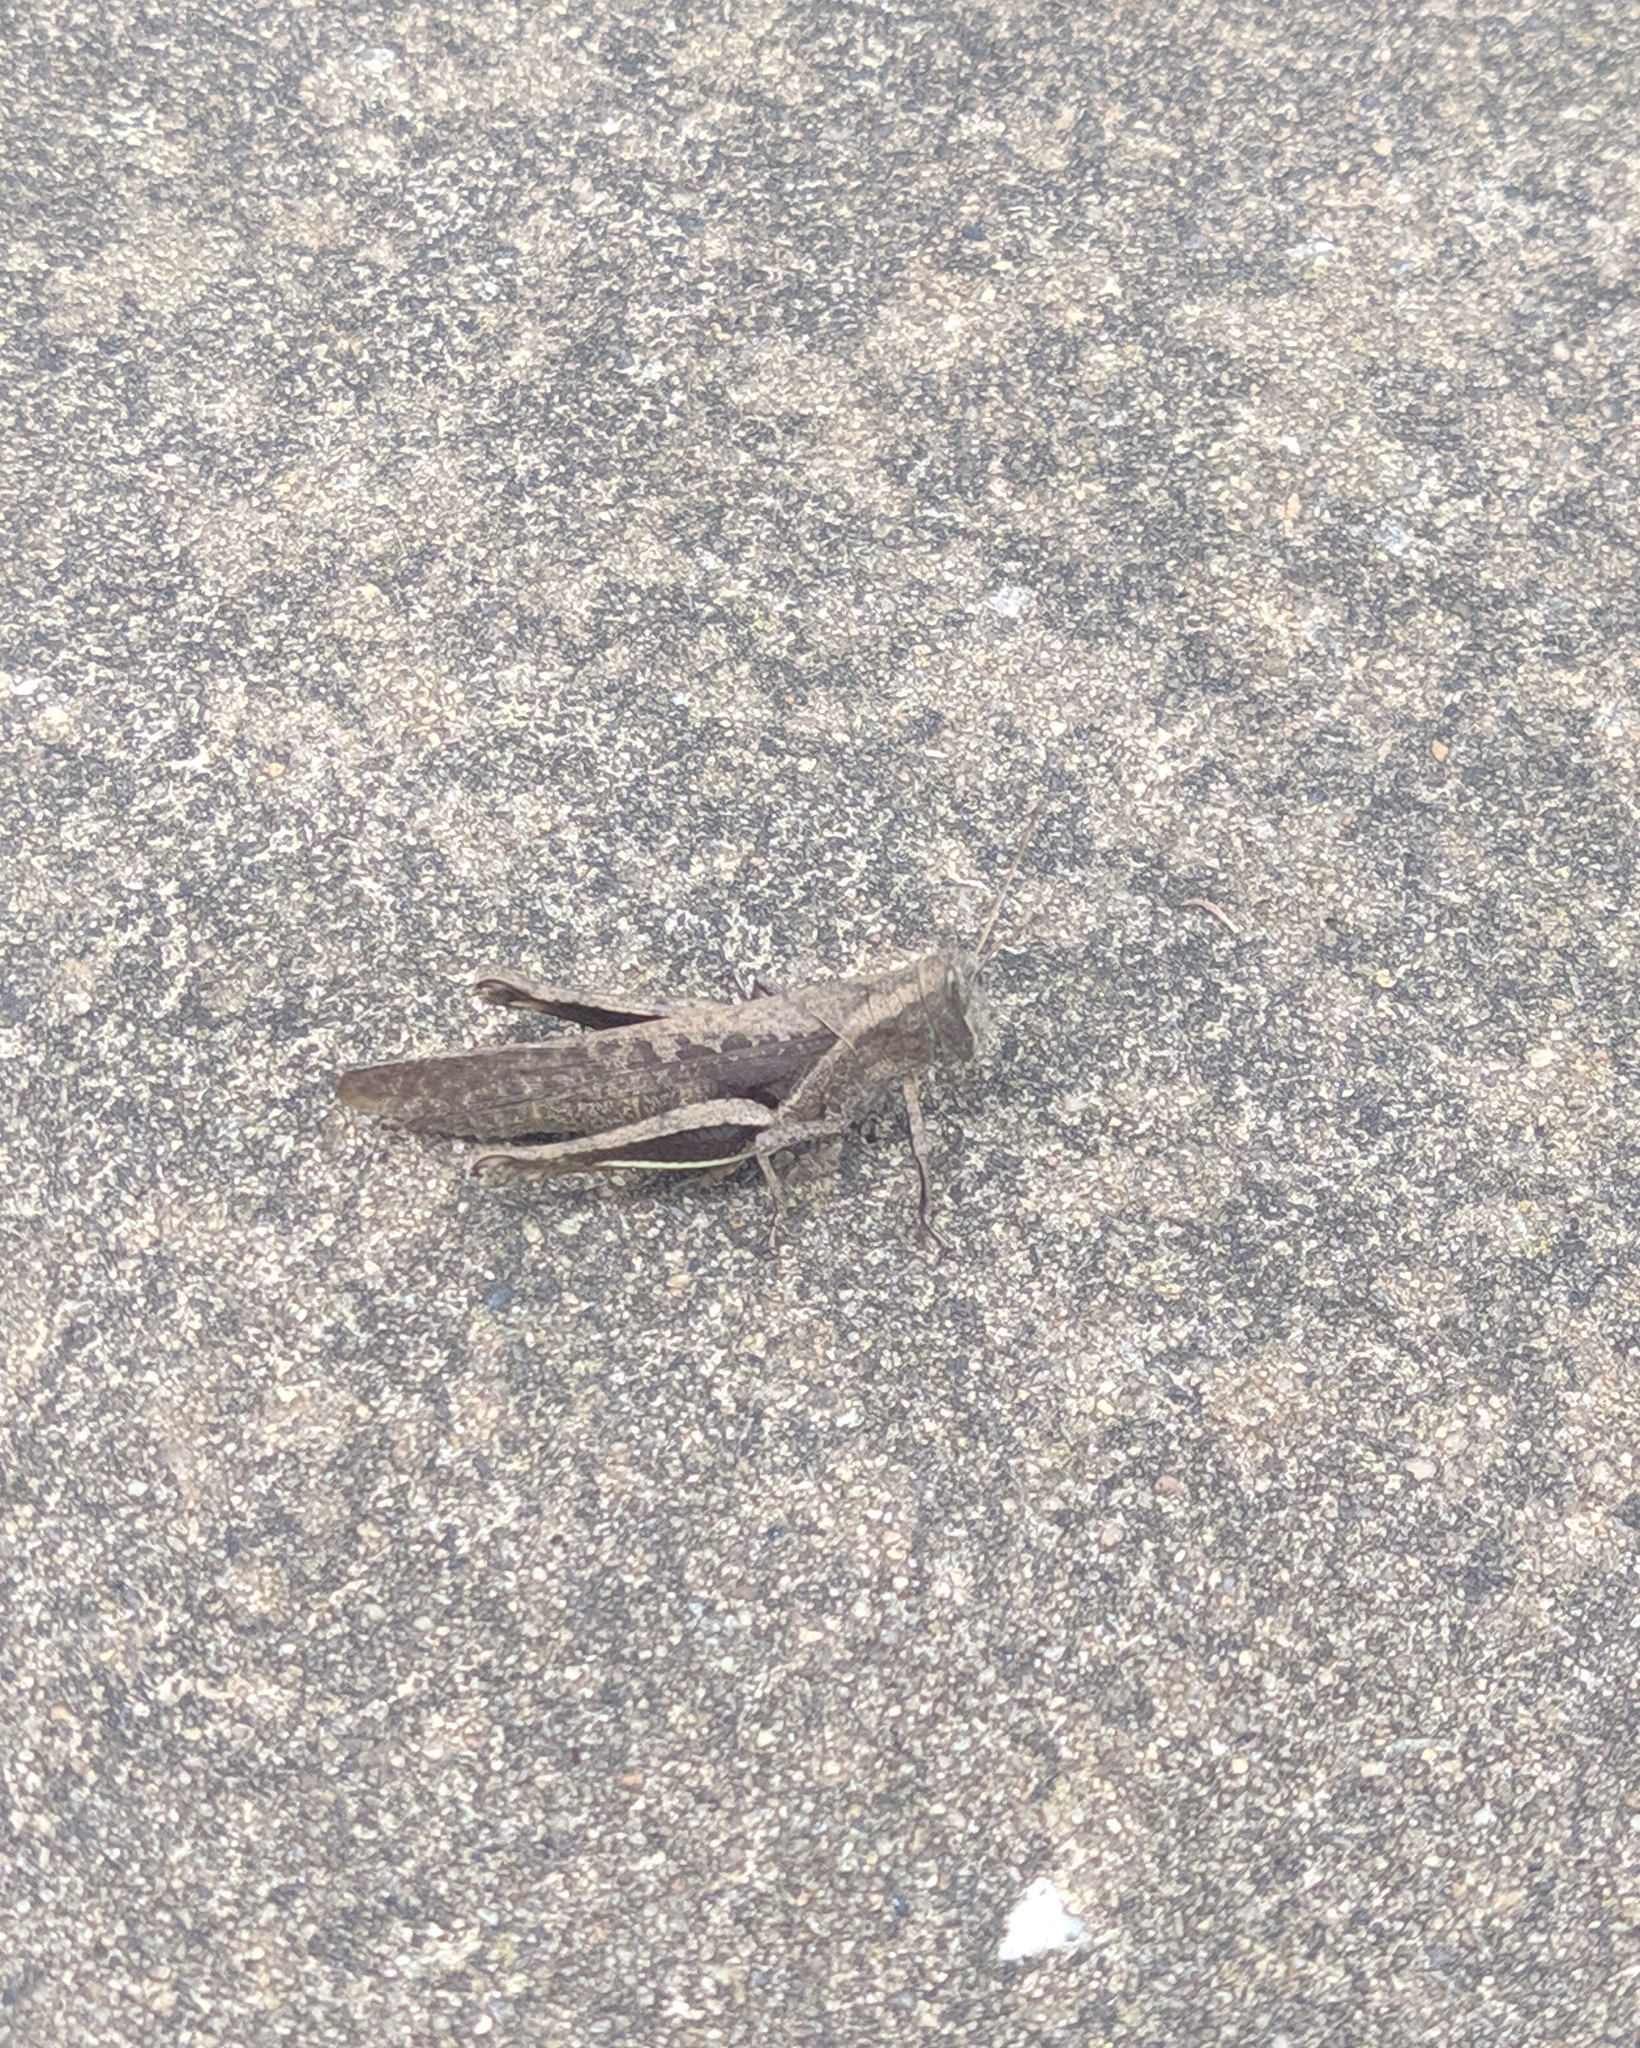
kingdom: Animalia
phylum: Arthropoda
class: Insecta
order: Orthoptera
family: Acrididae
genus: Abracris
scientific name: Abracris flavolineata
